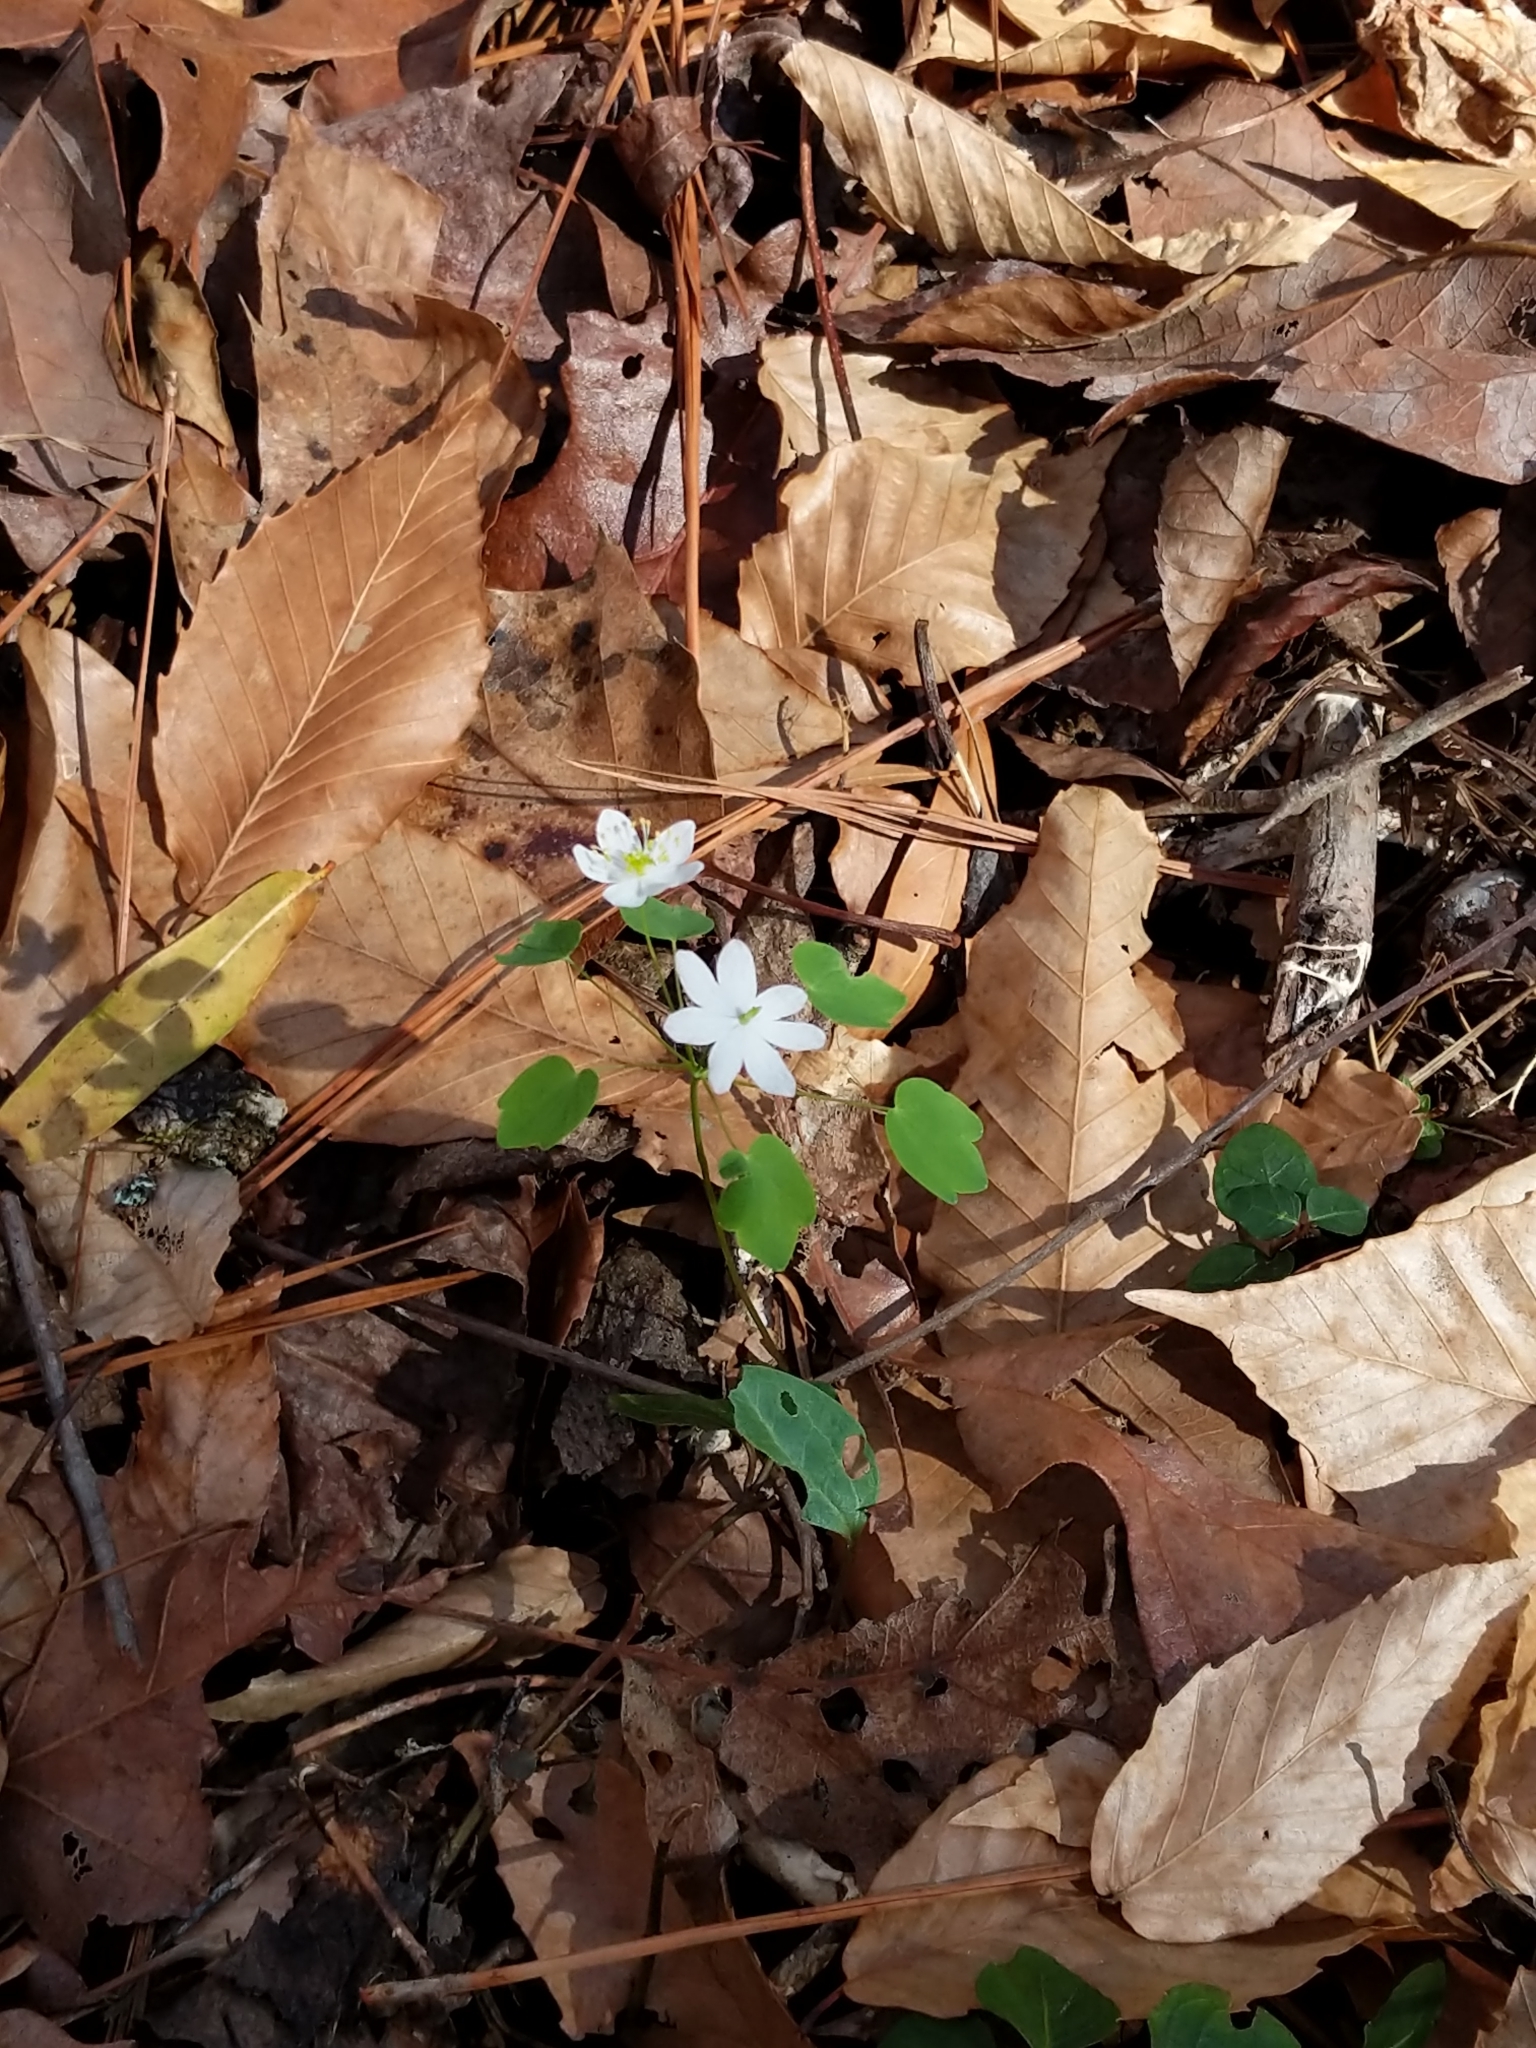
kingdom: Plantae
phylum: Tracheophyta
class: Magnoliopsida
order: Ranunculales
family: Ranunculaceae
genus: Thalictrum
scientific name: Thalictrum thalictroides
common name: Rue-anemone
